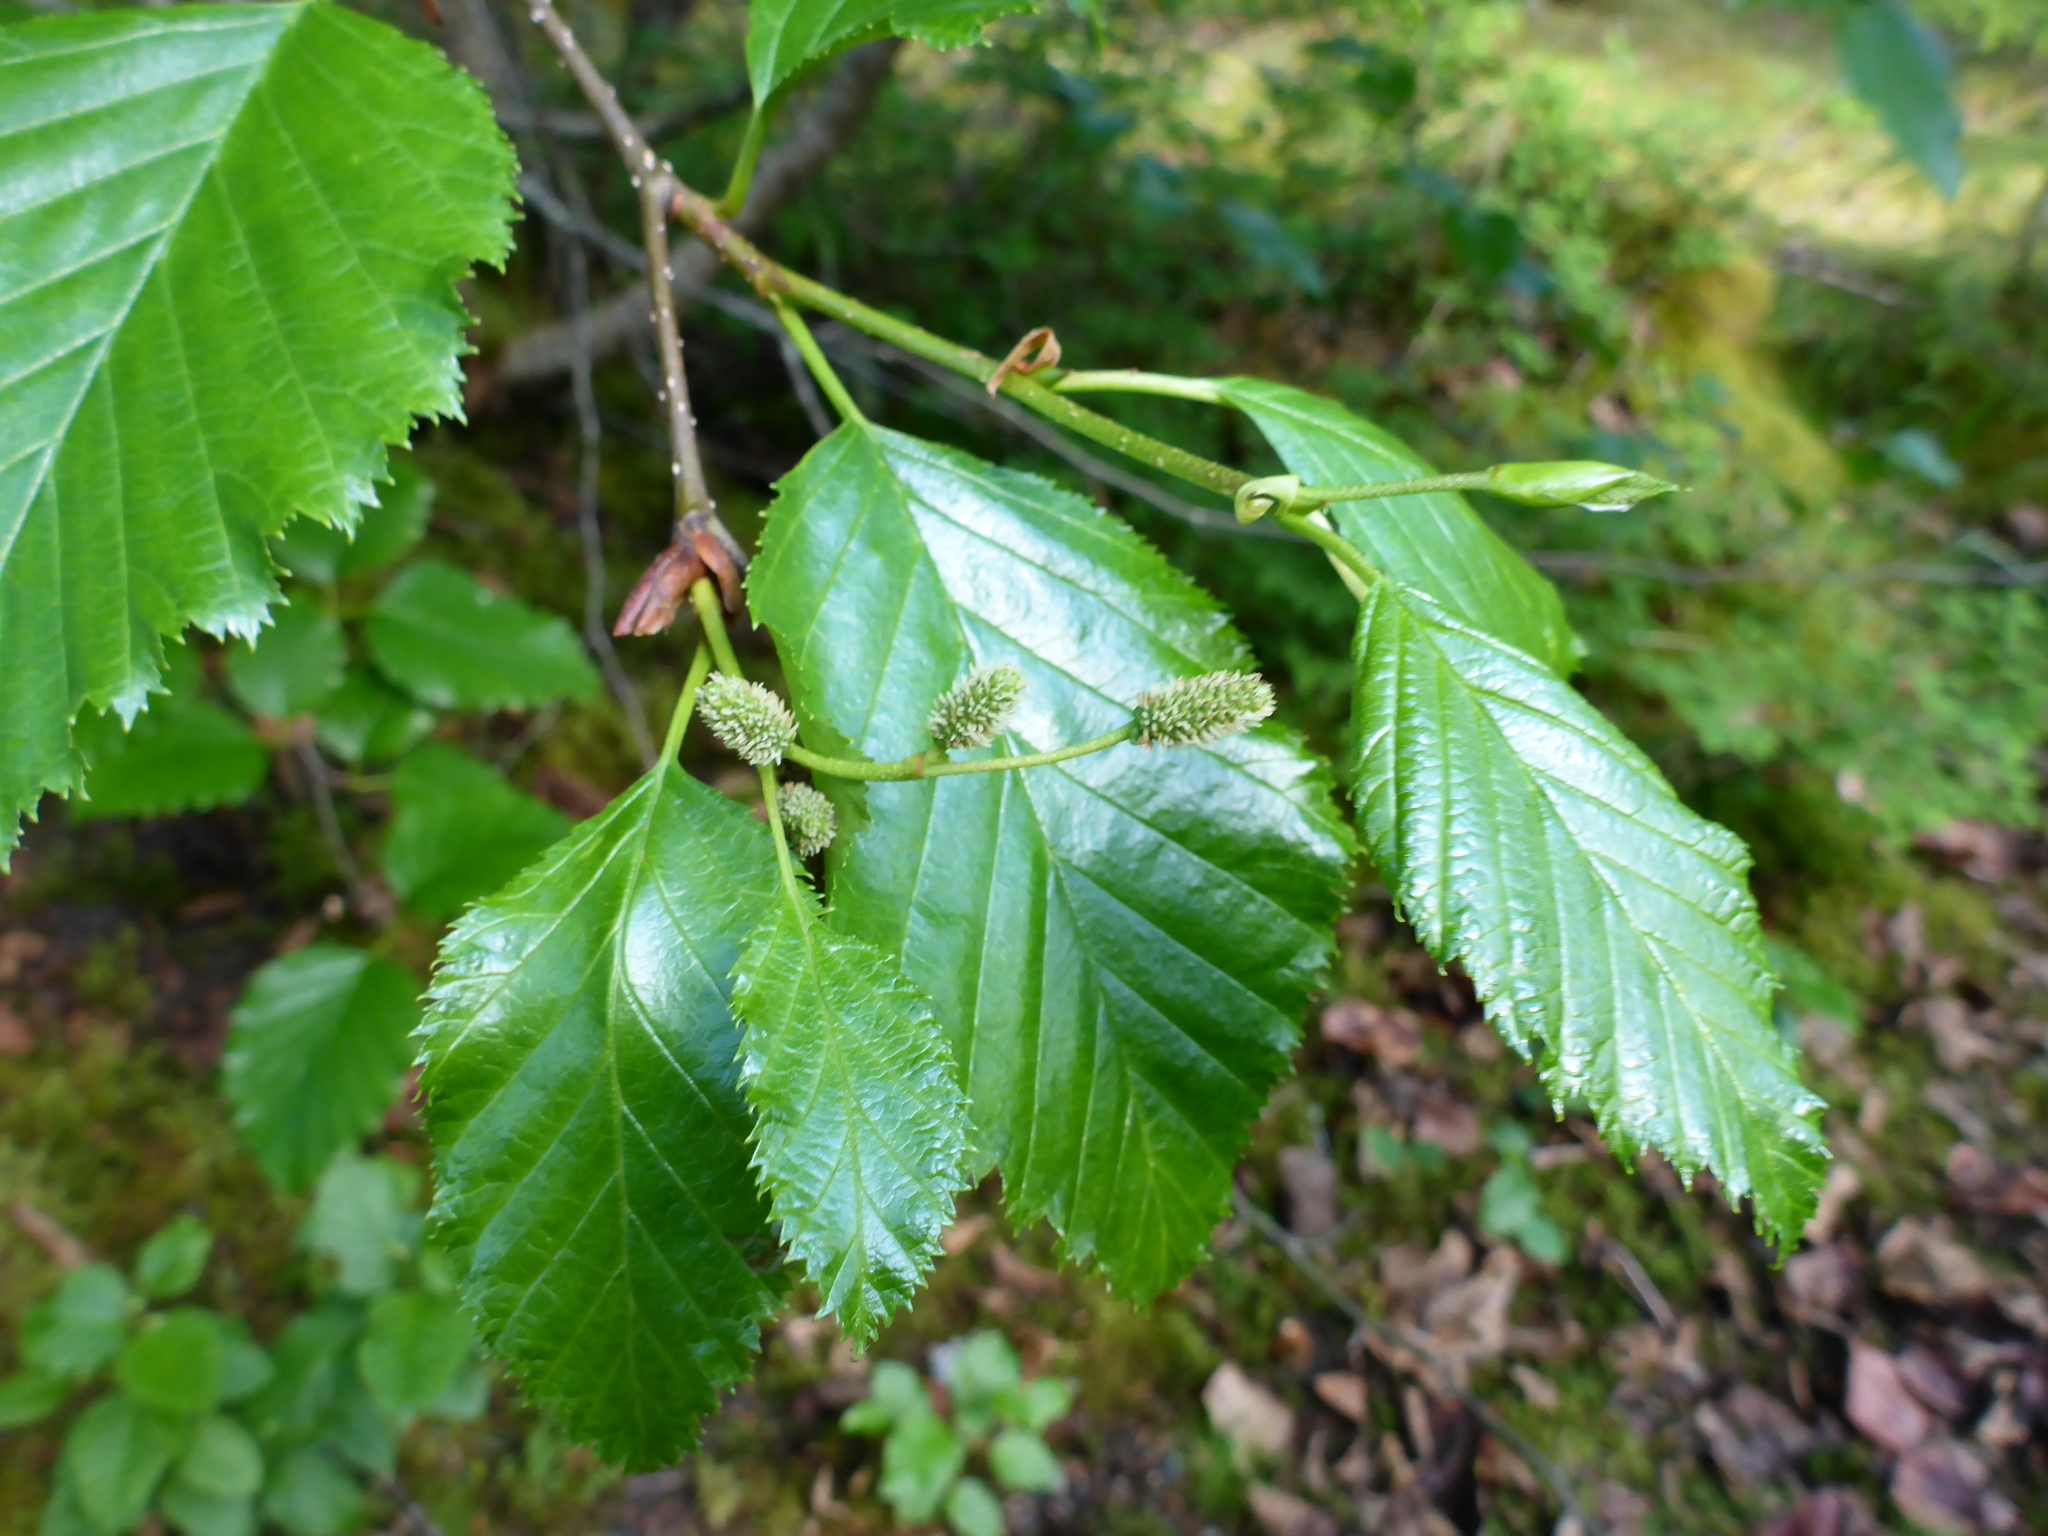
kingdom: Plantae
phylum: Tracheophyta
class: Magnoliopsida
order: Fagales
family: Betulaceae
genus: Alnus
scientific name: Alnus alnobetula
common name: Green alder
